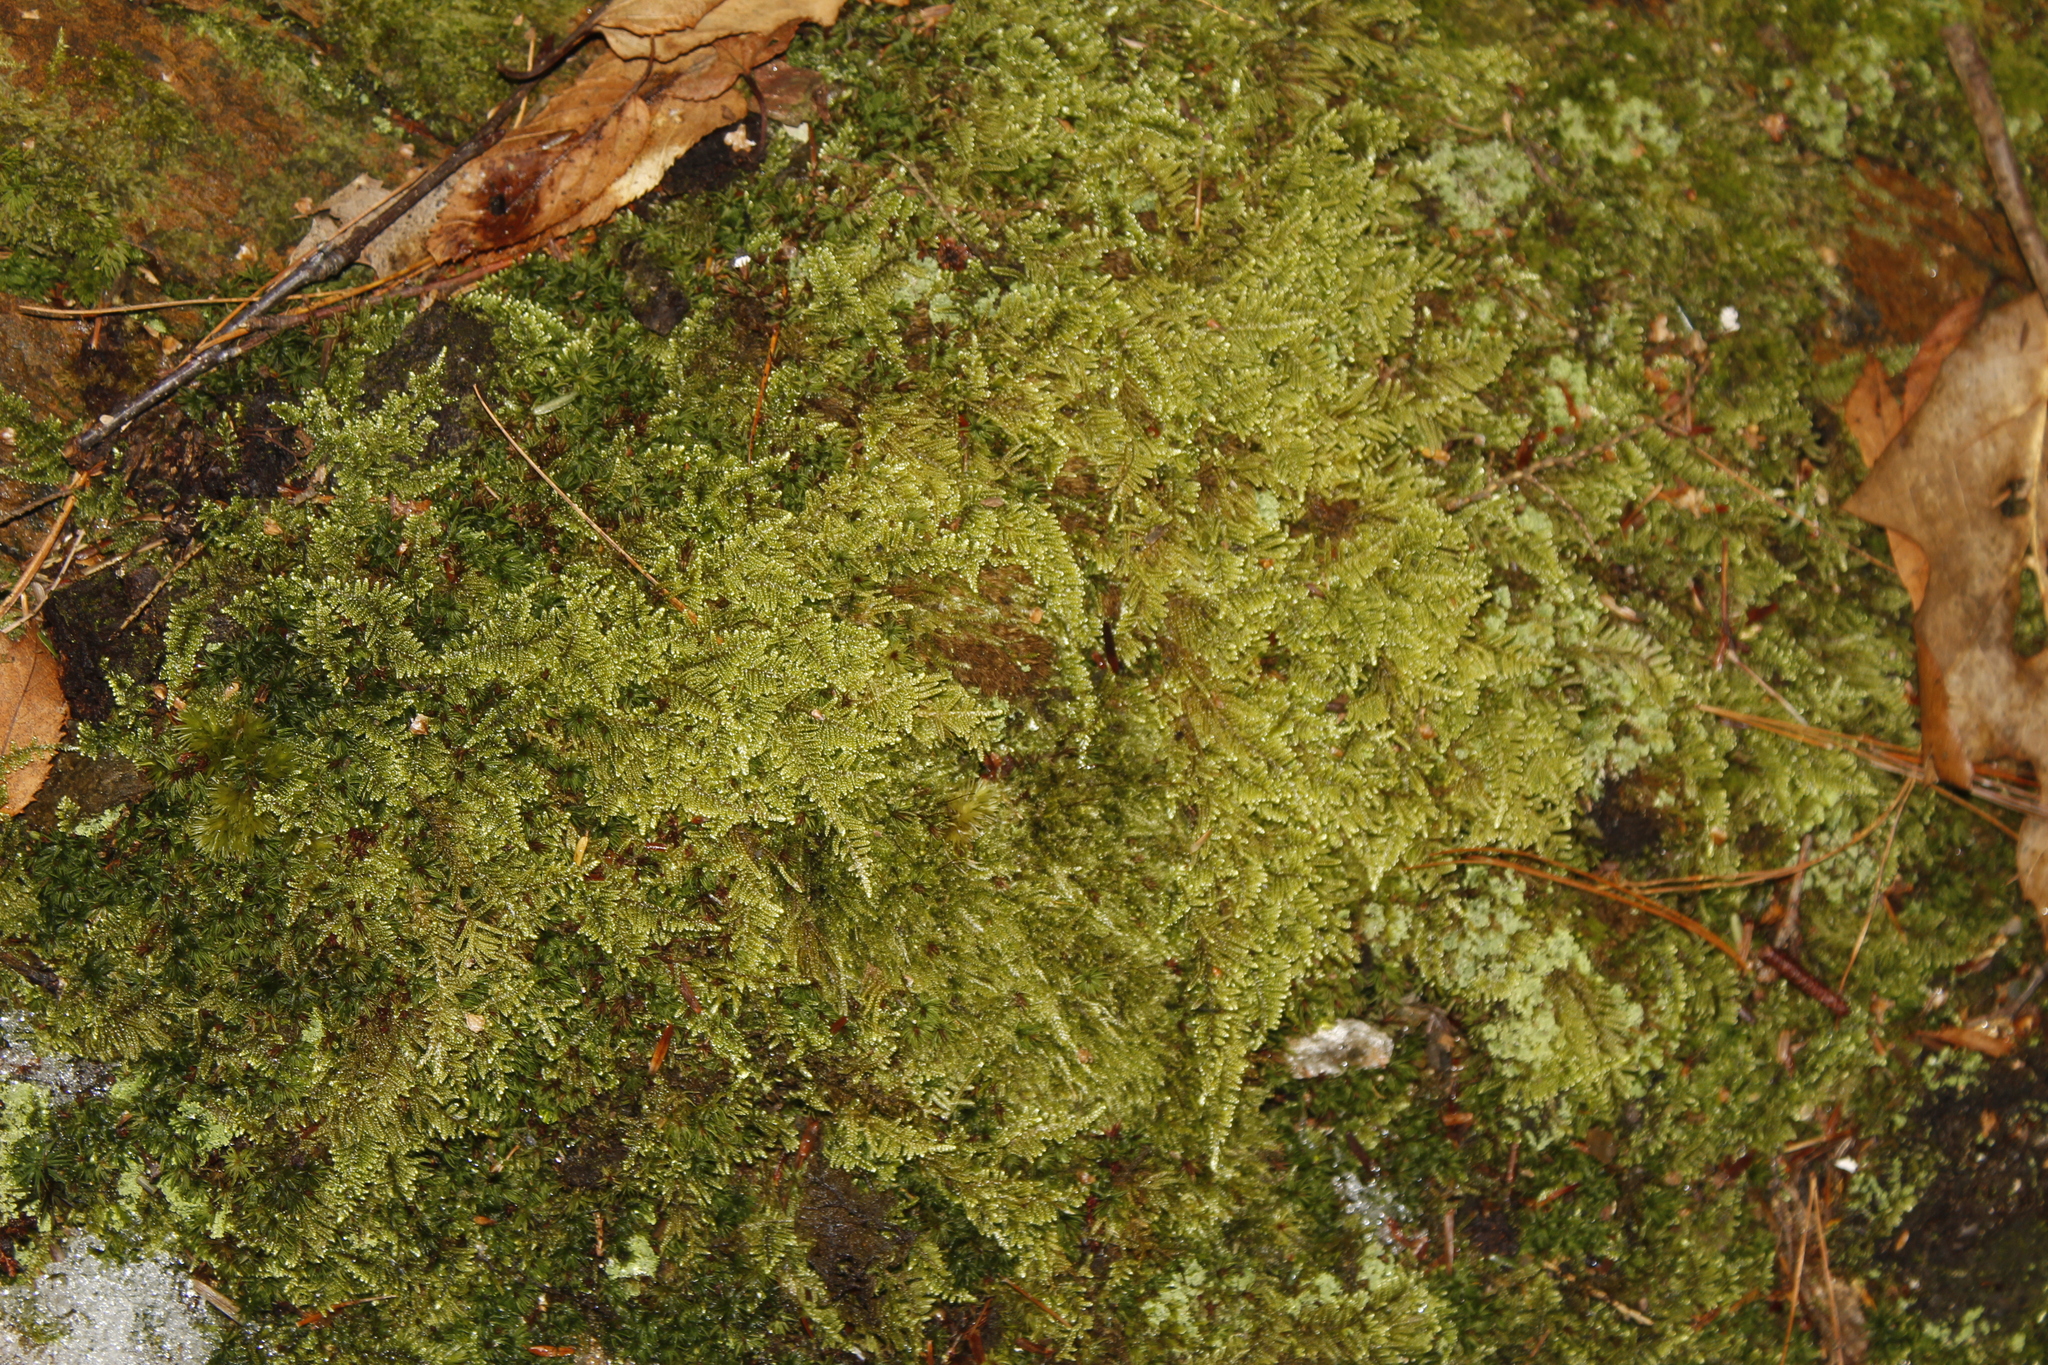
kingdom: Plantae
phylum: Bryophyta
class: Bryopsida
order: Hypnales
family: Callicladiaceae
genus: Callicladium
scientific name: Callicladium imponens
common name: Brocade moss
